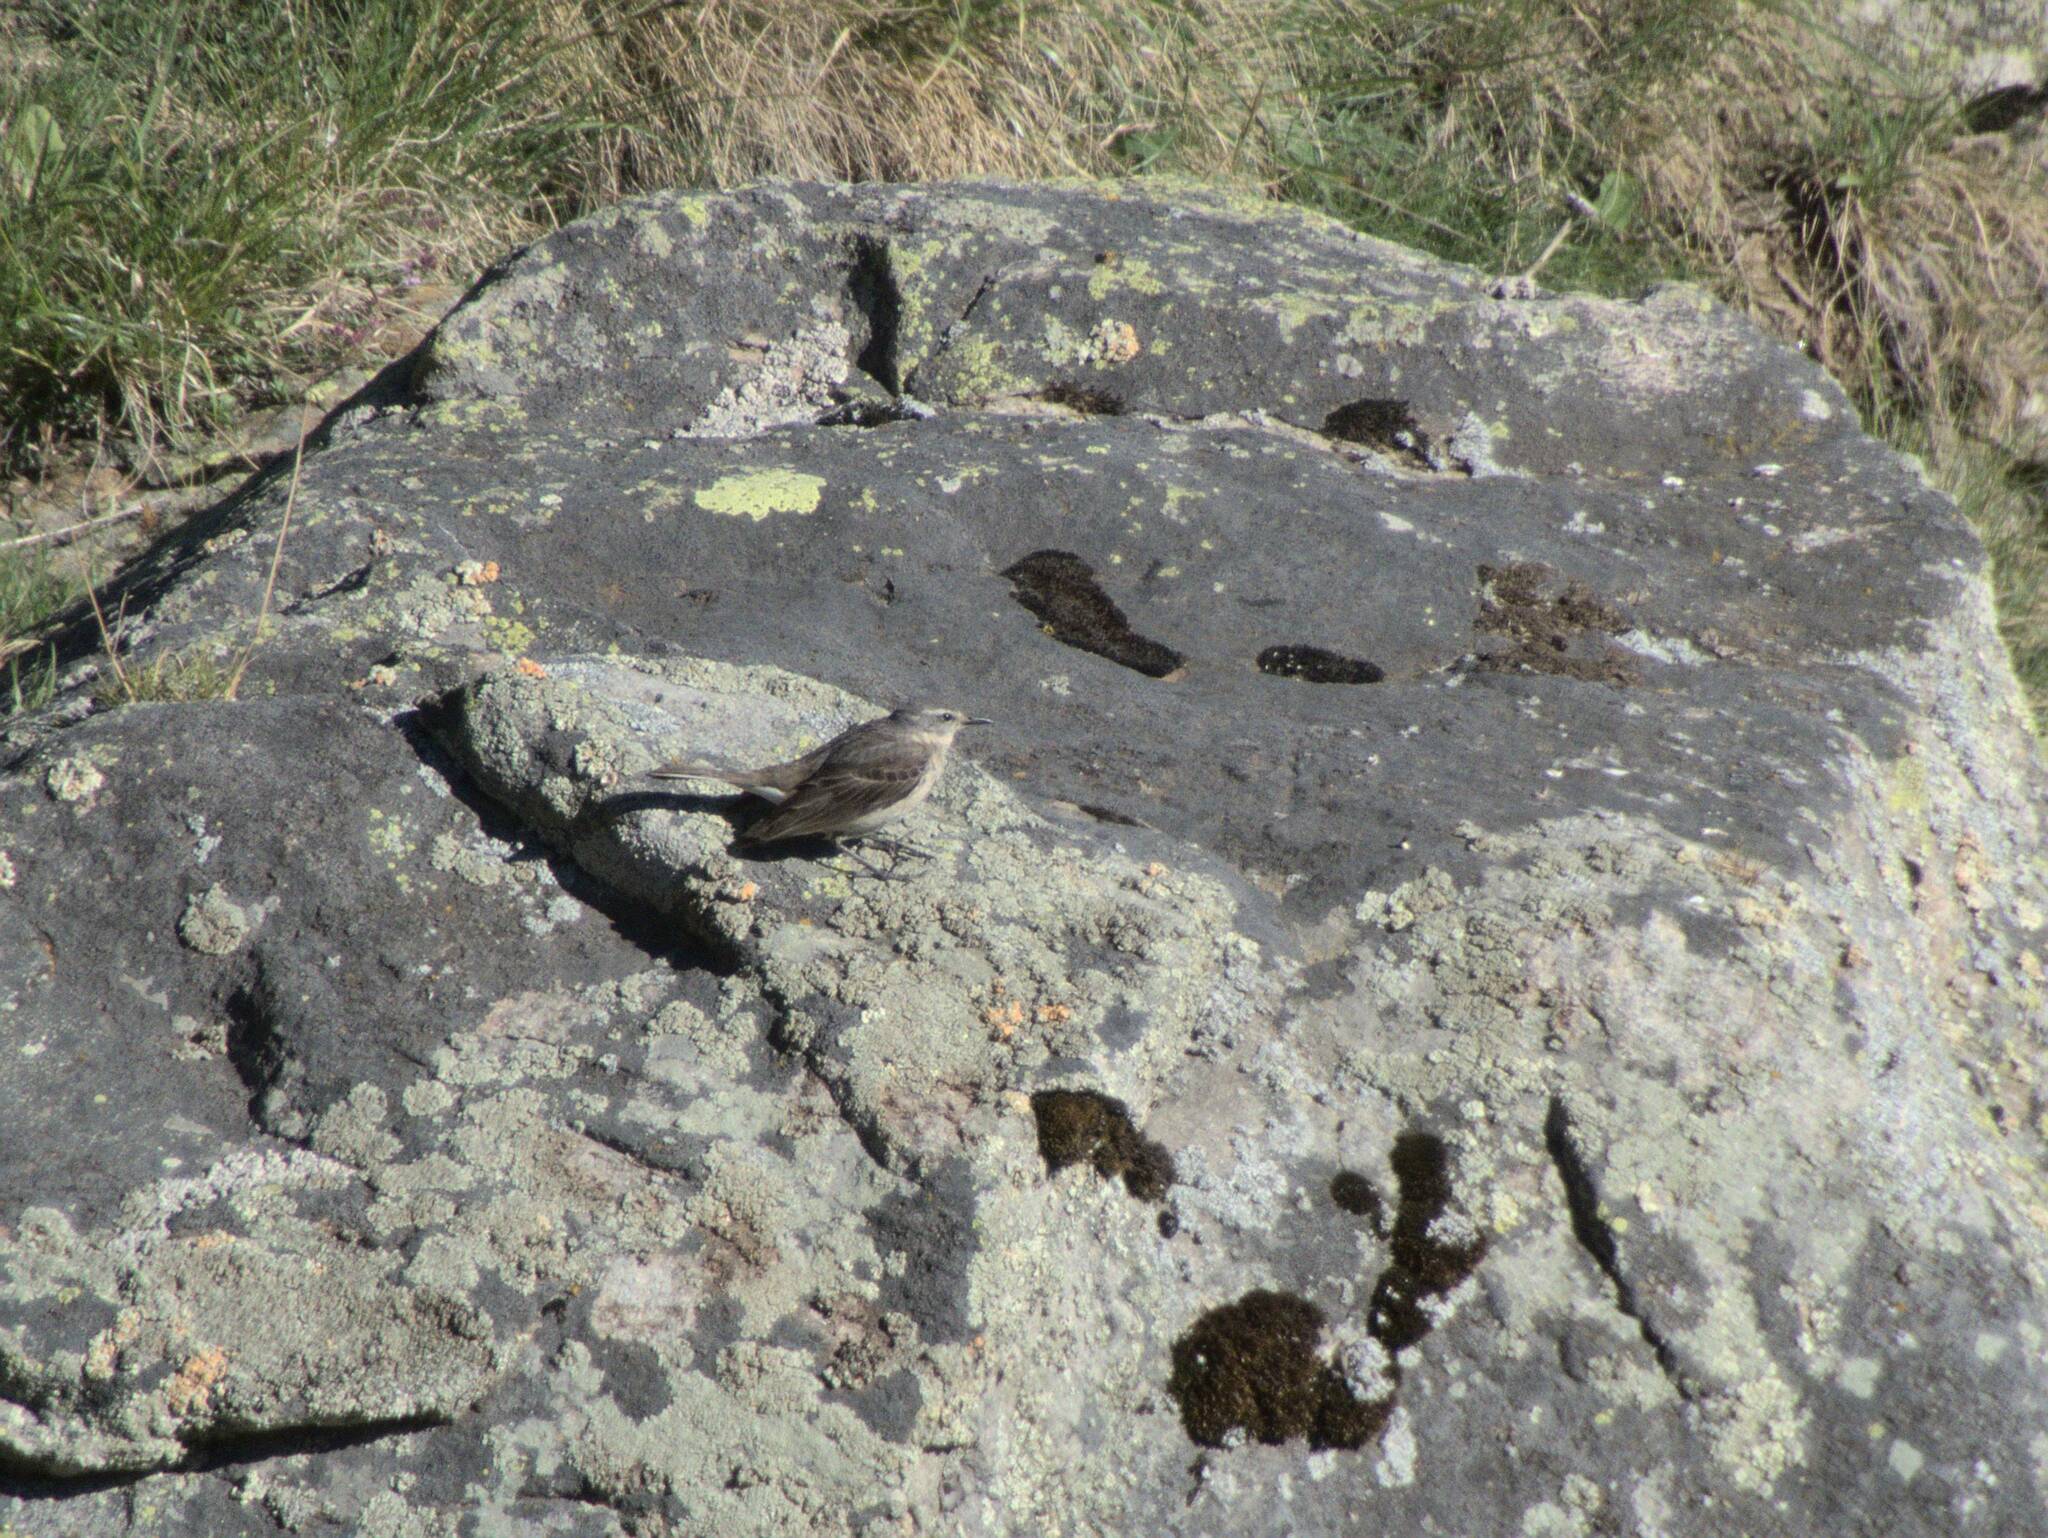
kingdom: Animalia
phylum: Chordata
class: Aves
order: Passeriformes
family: Motacillidae
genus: Anthus
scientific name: Anthus spinoletta
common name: Water pipit
